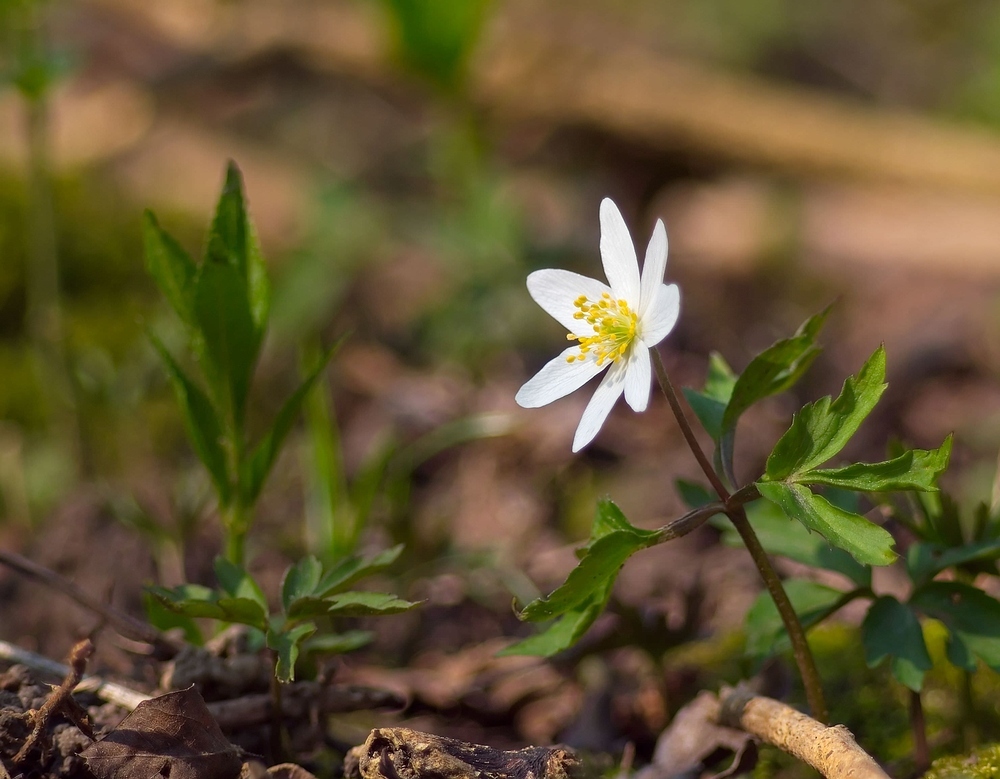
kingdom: Plantae
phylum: Tracheophyta
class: Magnoliopsida
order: Ranunculales
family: Ranunculaceae
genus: Anemone
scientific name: Anemone nemorosa
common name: Wood anemone
